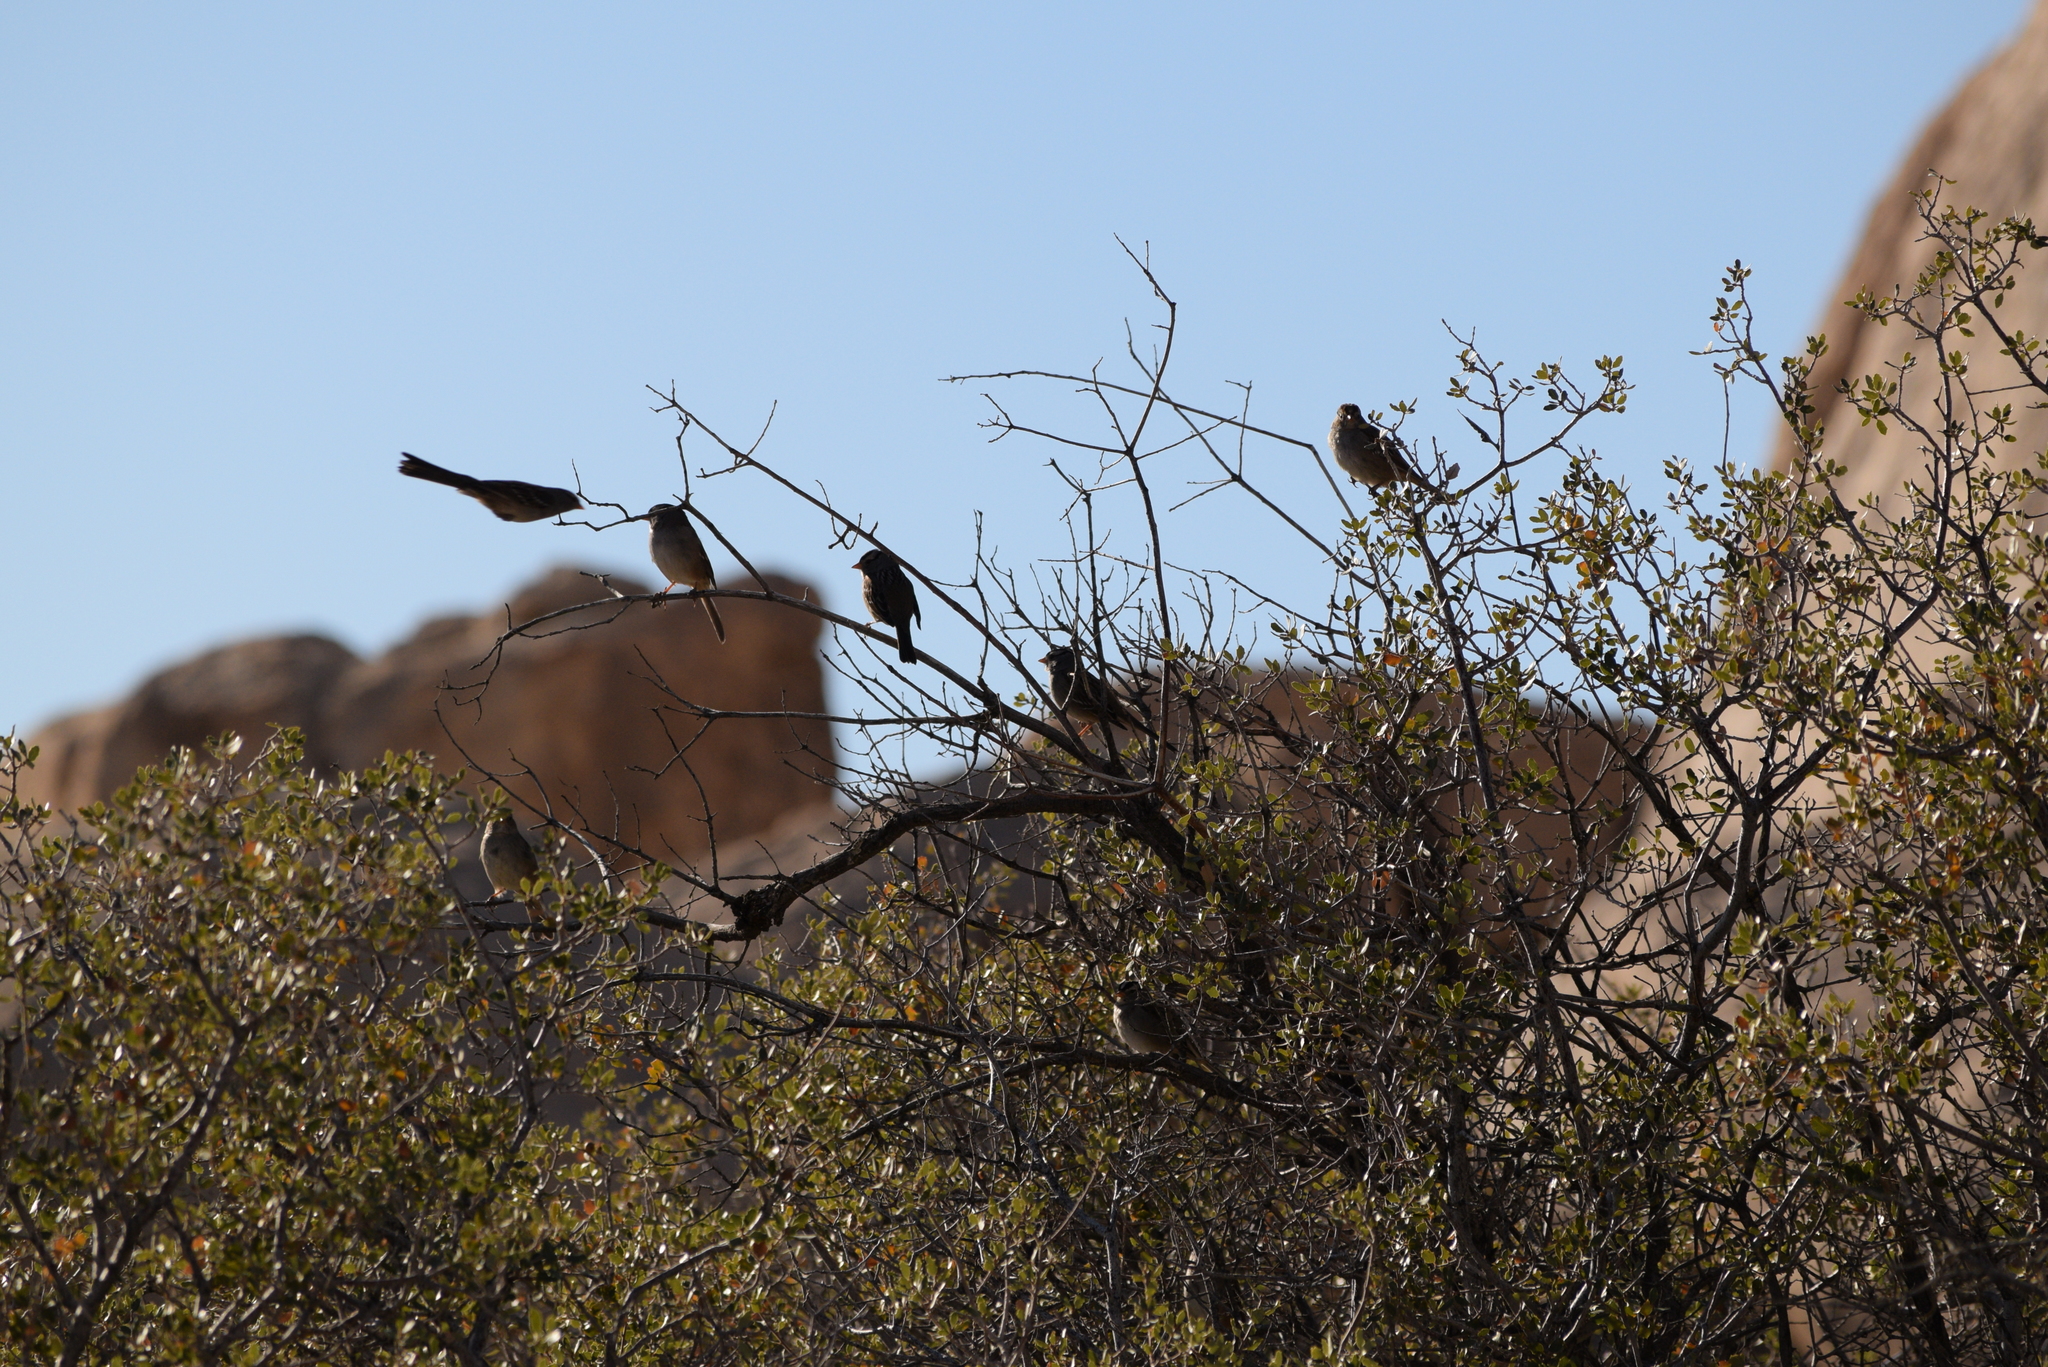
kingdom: Animalia
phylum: Chordata
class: Aves
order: Passeriformes
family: Passerellidae
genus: Zonotrichia
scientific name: Zonotrichia leucophrys
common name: White-crowned sparrow
